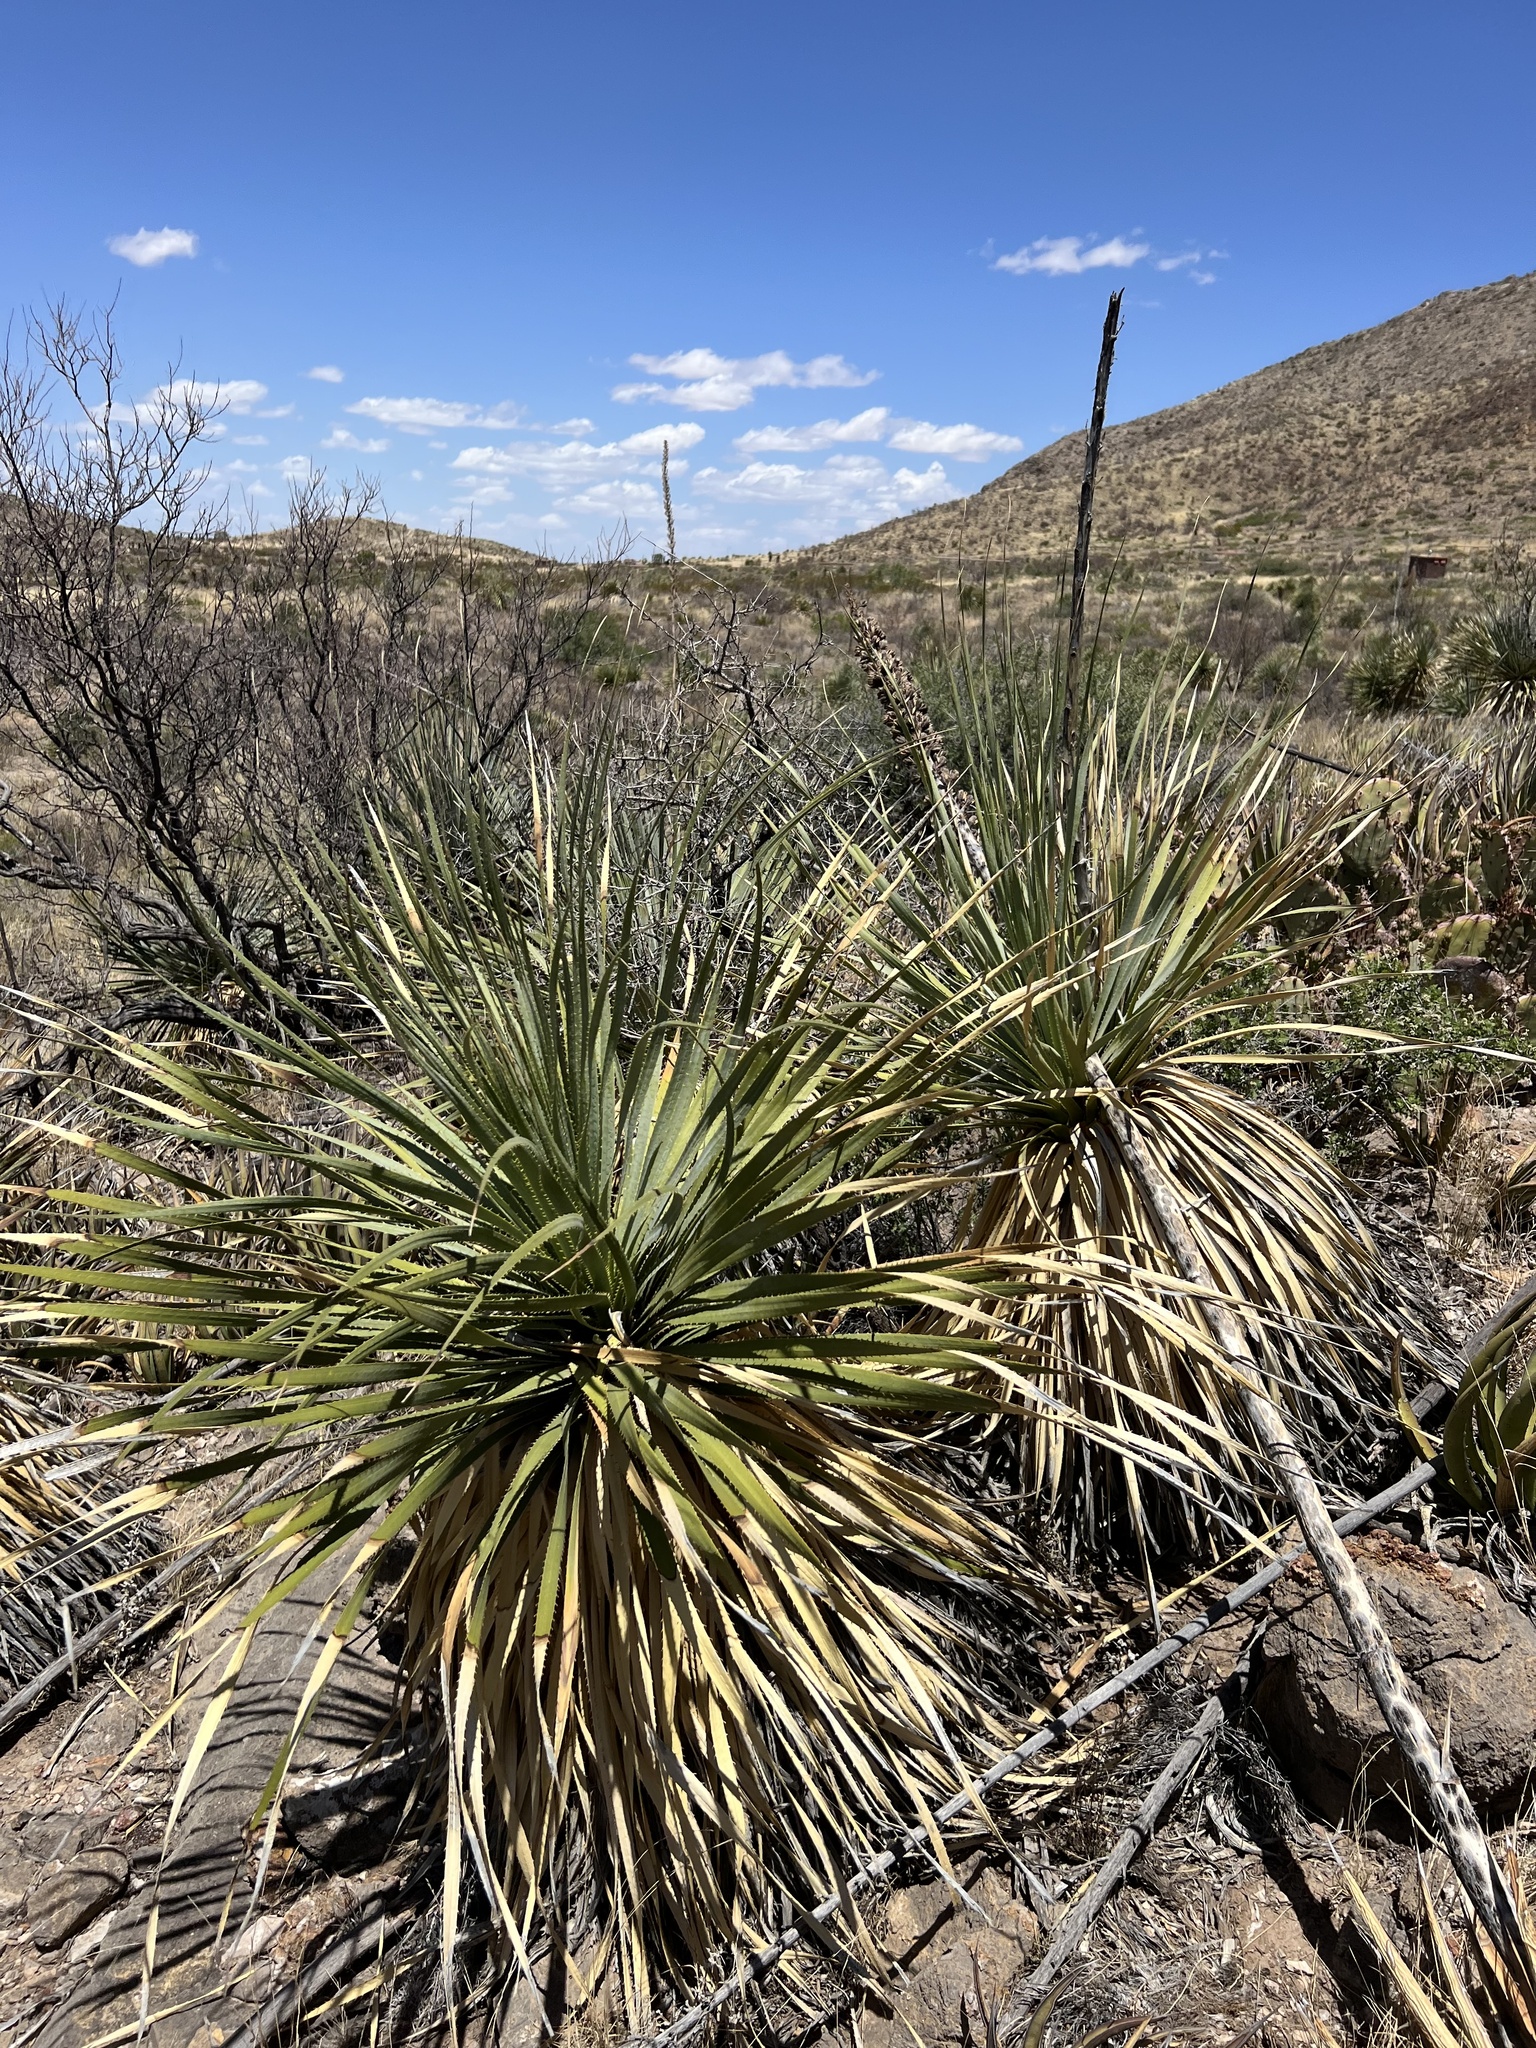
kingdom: Plantae
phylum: Tracheophyta
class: Liliopsida
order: Asparagales
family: Asparagaceae
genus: Dasylirion
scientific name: Dasylirion wheeleri
